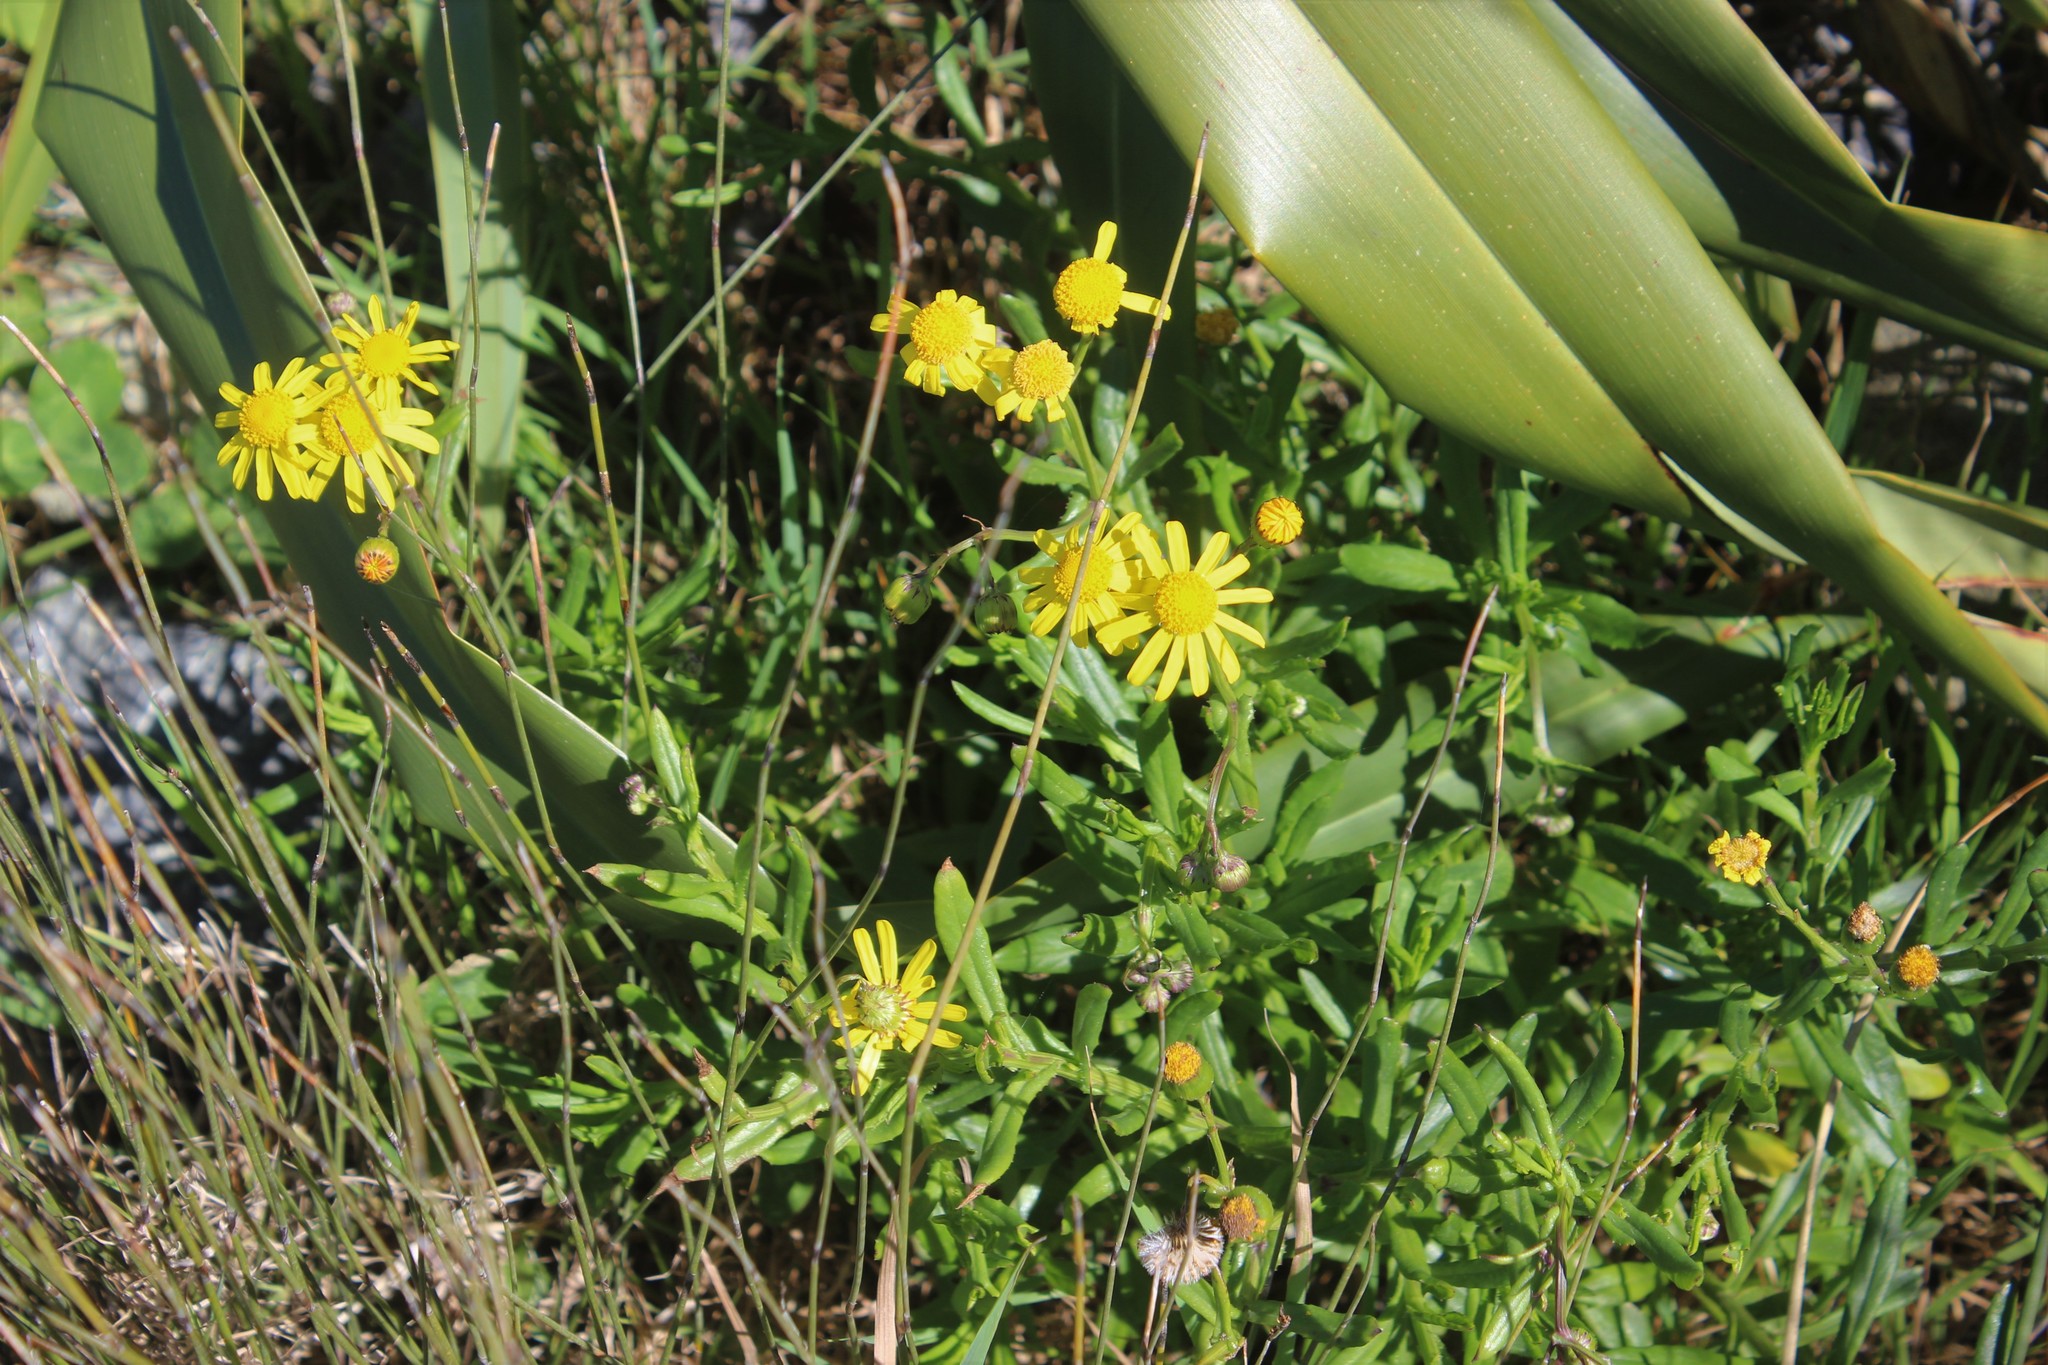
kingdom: Plantae
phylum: Tracheophyta
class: Magnoliopsida
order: Asterales
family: Asteraceae
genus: Senecio
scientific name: Senecio skirrhodon
